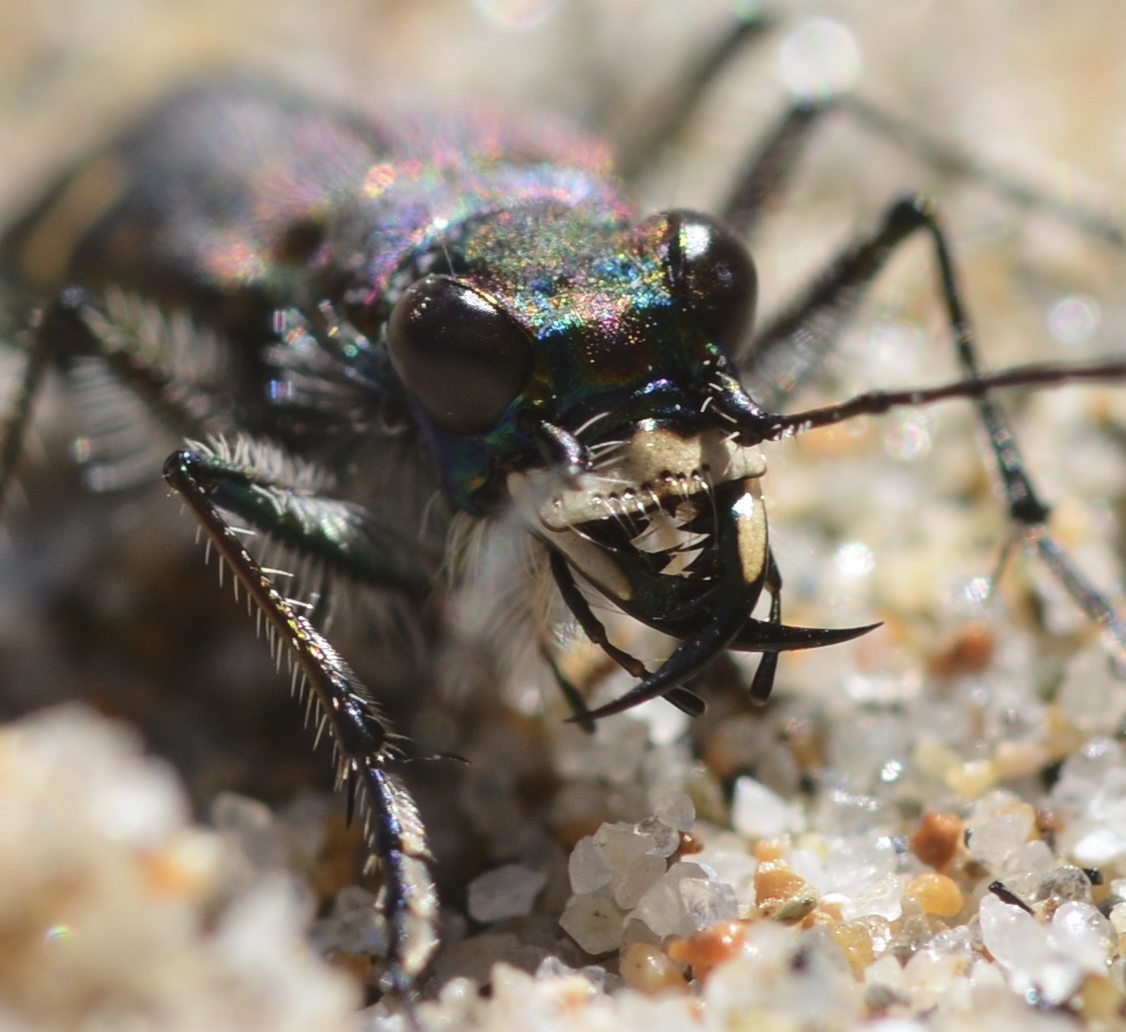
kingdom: Animalia
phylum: Arthropoda
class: Insecta
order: Coleoptera
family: Carabidae
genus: Cicindela
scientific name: Cicindela oregona
